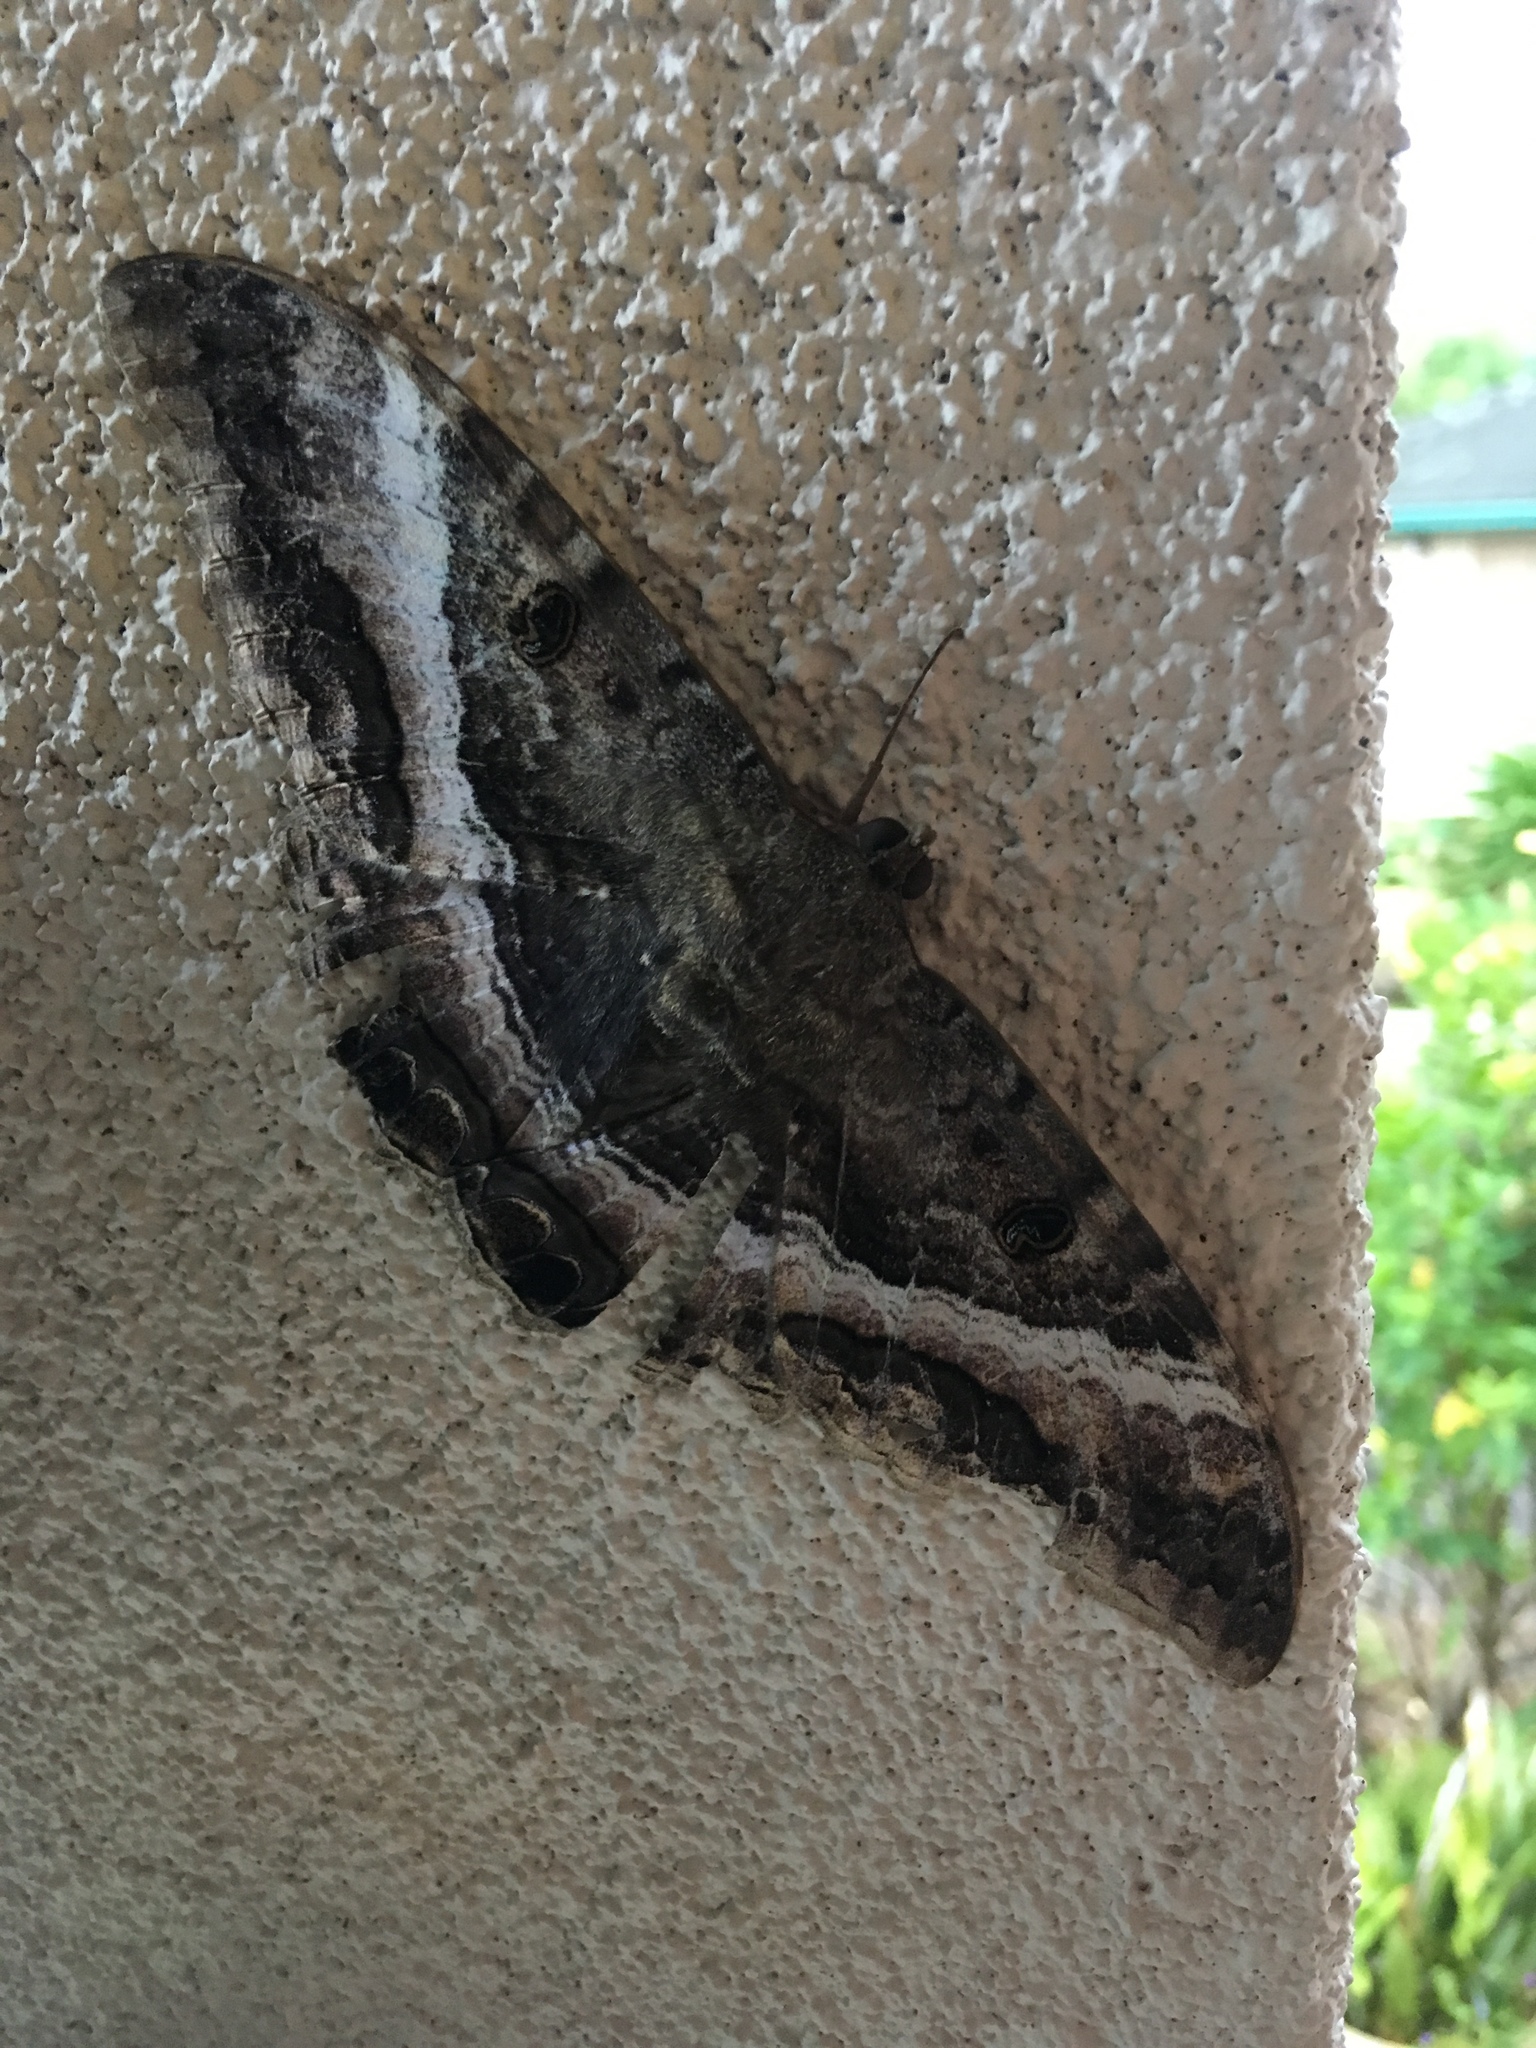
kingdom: Animalia
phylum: Arthropoda
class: Insecta
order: Lepidoptera
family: Erebidae
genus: Ascalapha
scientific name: Ascalapha odorata
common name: Black witch
